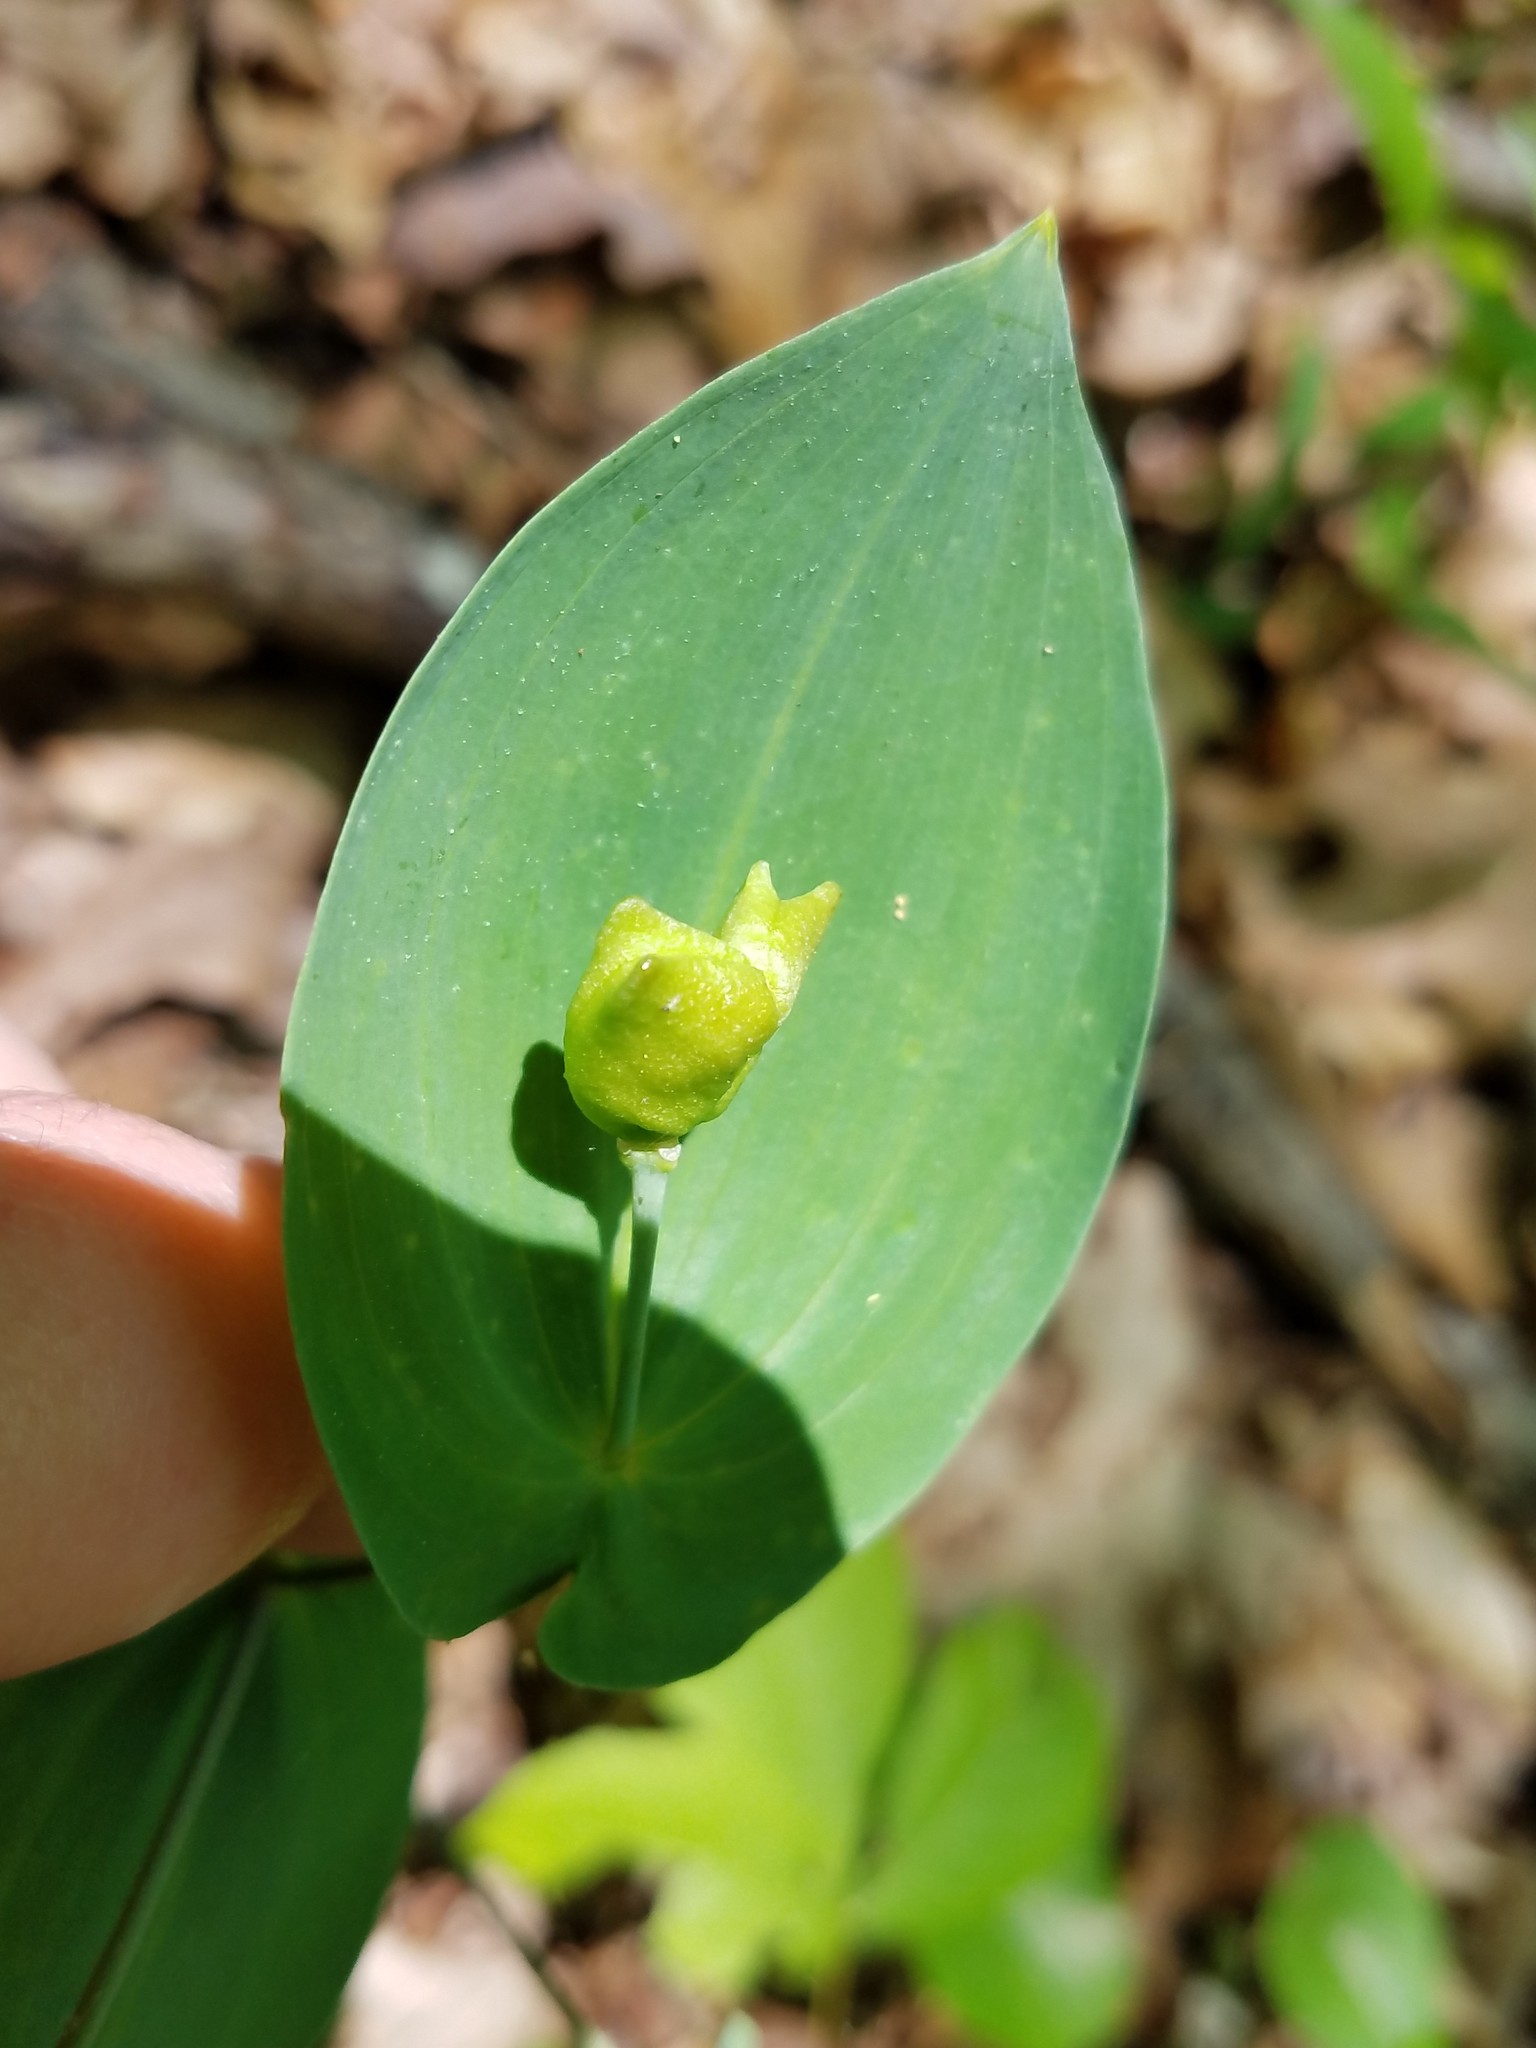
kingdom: Plantae
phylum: Tracheophyta
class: Liliopsida
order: Liliales
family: Colchicaceae
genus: Uvularia
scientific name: Uvularia perfoliata
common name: Perfoliate bellwort
